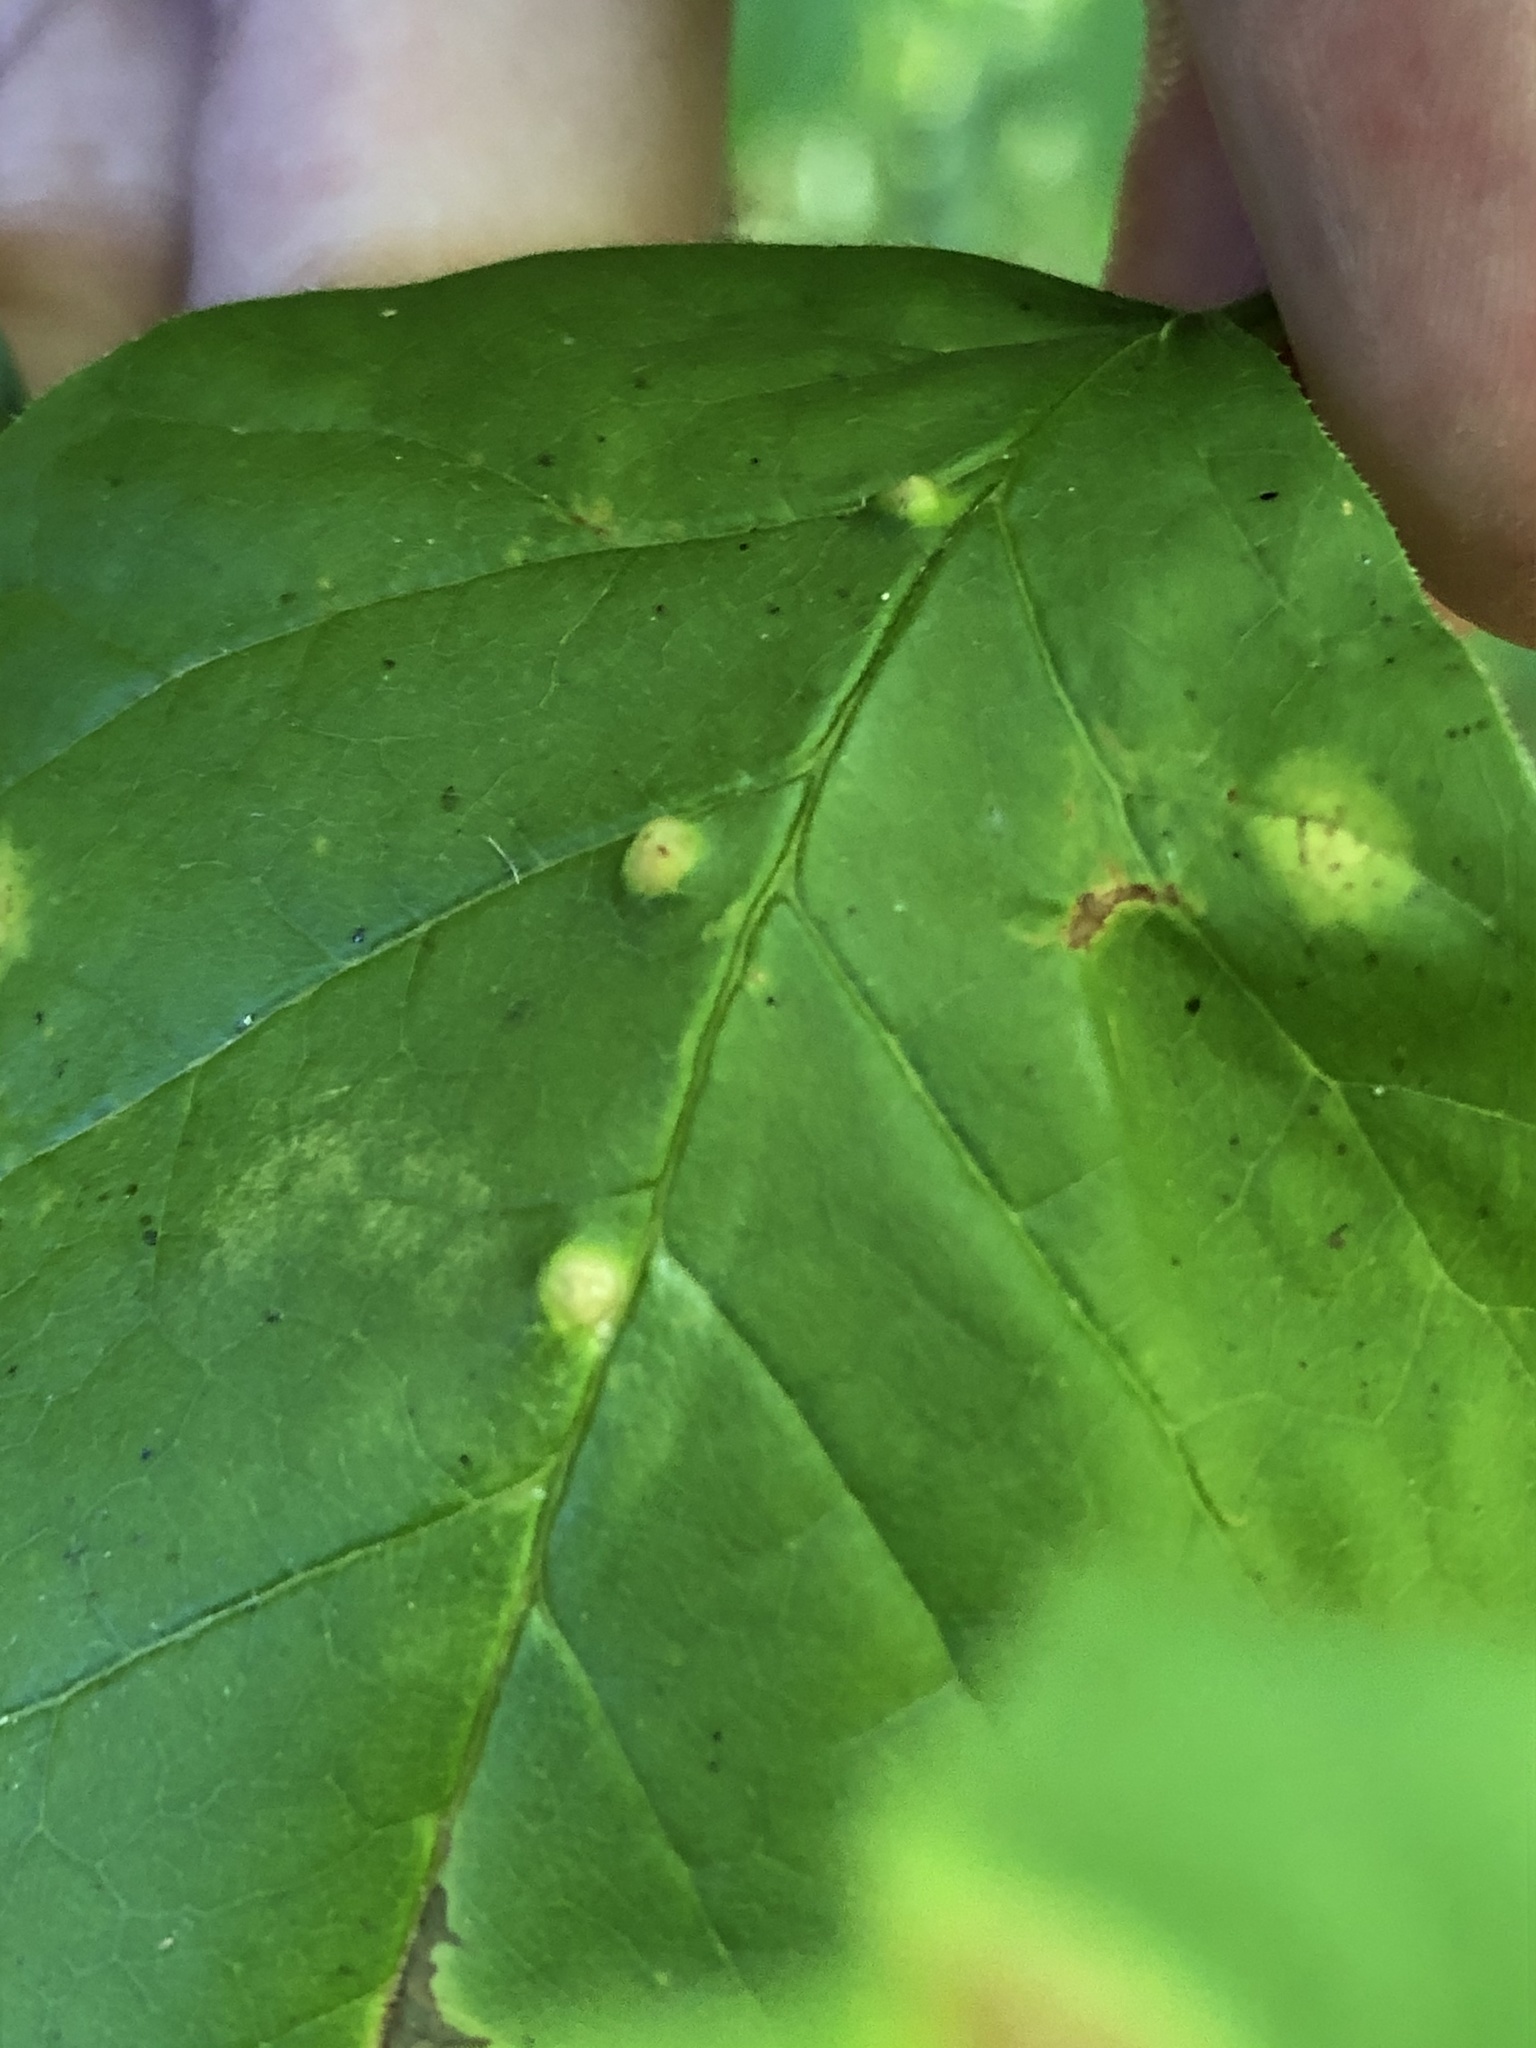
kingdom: Animalia
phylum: Arthropoda
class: Arachnida
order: Trombidiformes
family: Eriophyidae
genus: Aceria
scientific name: Aceria fraxinicola
